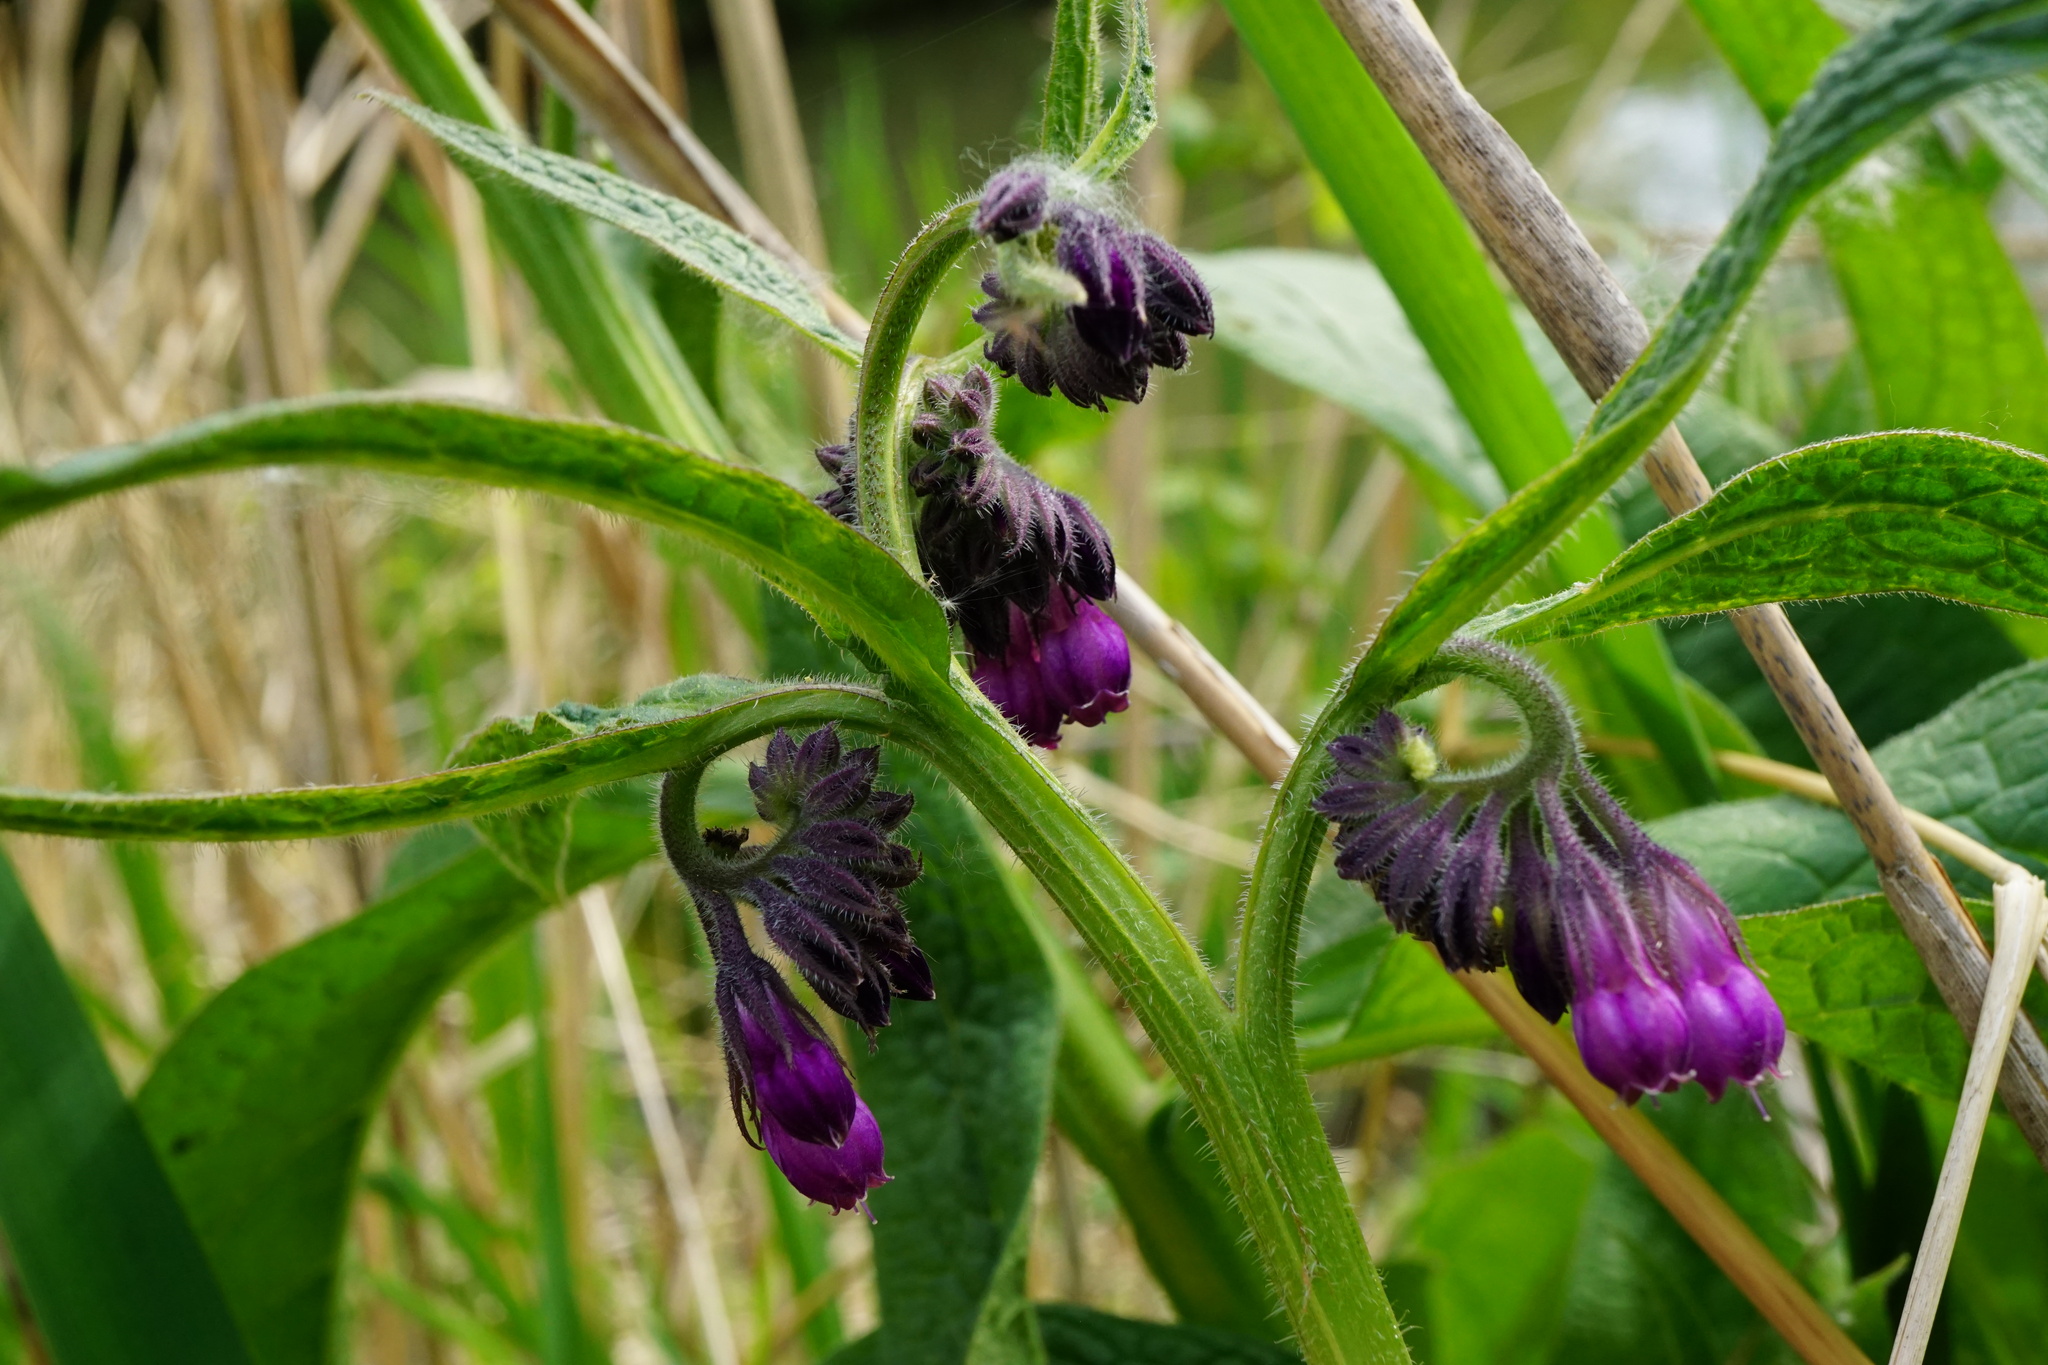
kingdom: Plantae
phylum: Tracheophyta
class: Magnoliopsida
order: Boraginales
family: Boraginaceae
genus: Symphytum
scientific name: Symphytum officinale
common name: Common comfrey
